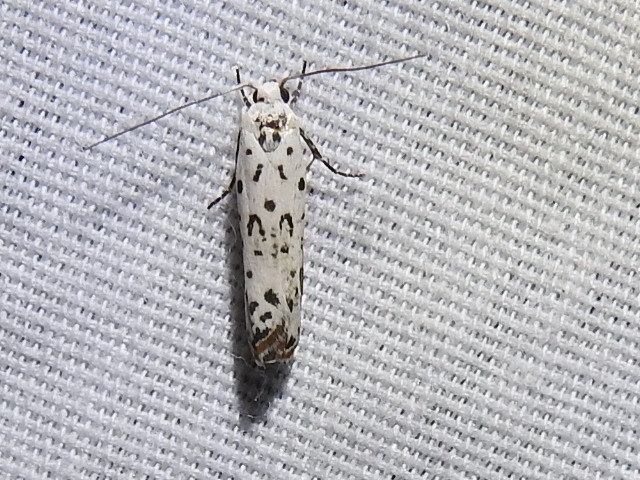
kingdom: Animalia
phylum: Arthropoda
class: Insecta
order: Lepidoptera
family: Ethmiidae
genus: Ethmia
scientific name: Ethmia delliella
